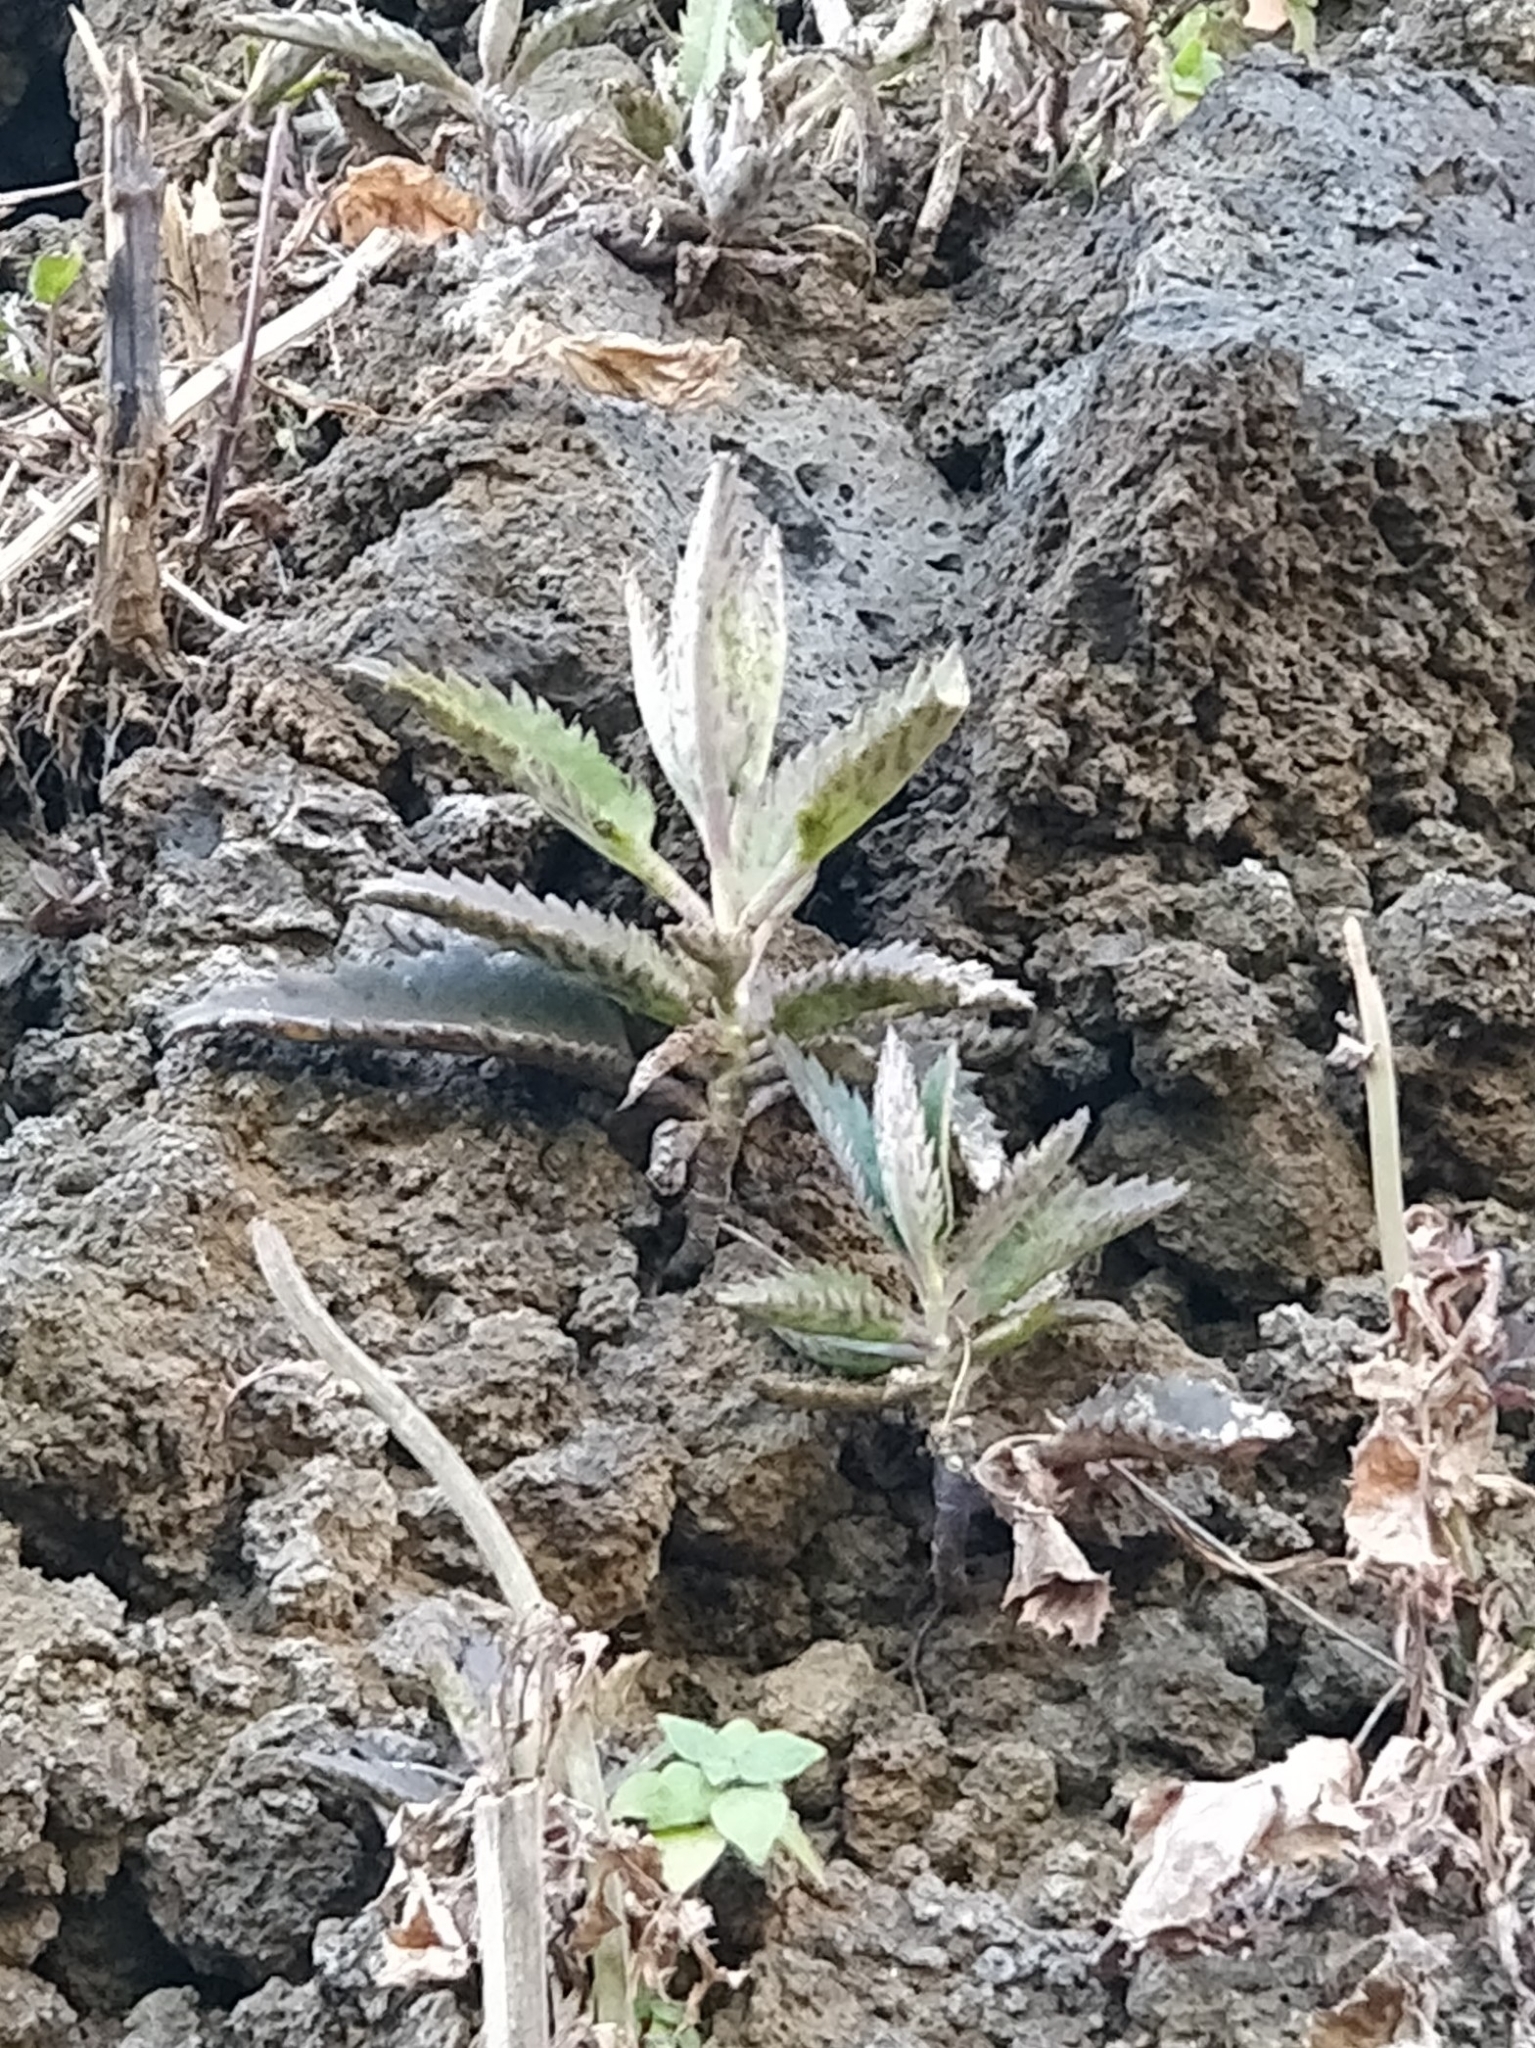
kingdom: Plantae
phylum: Tracheophyta
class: Magnoliopsida
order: Saxifragales
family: Crassulaceae
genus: Kalanchoe
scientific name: Kalanchoe houghtonii
